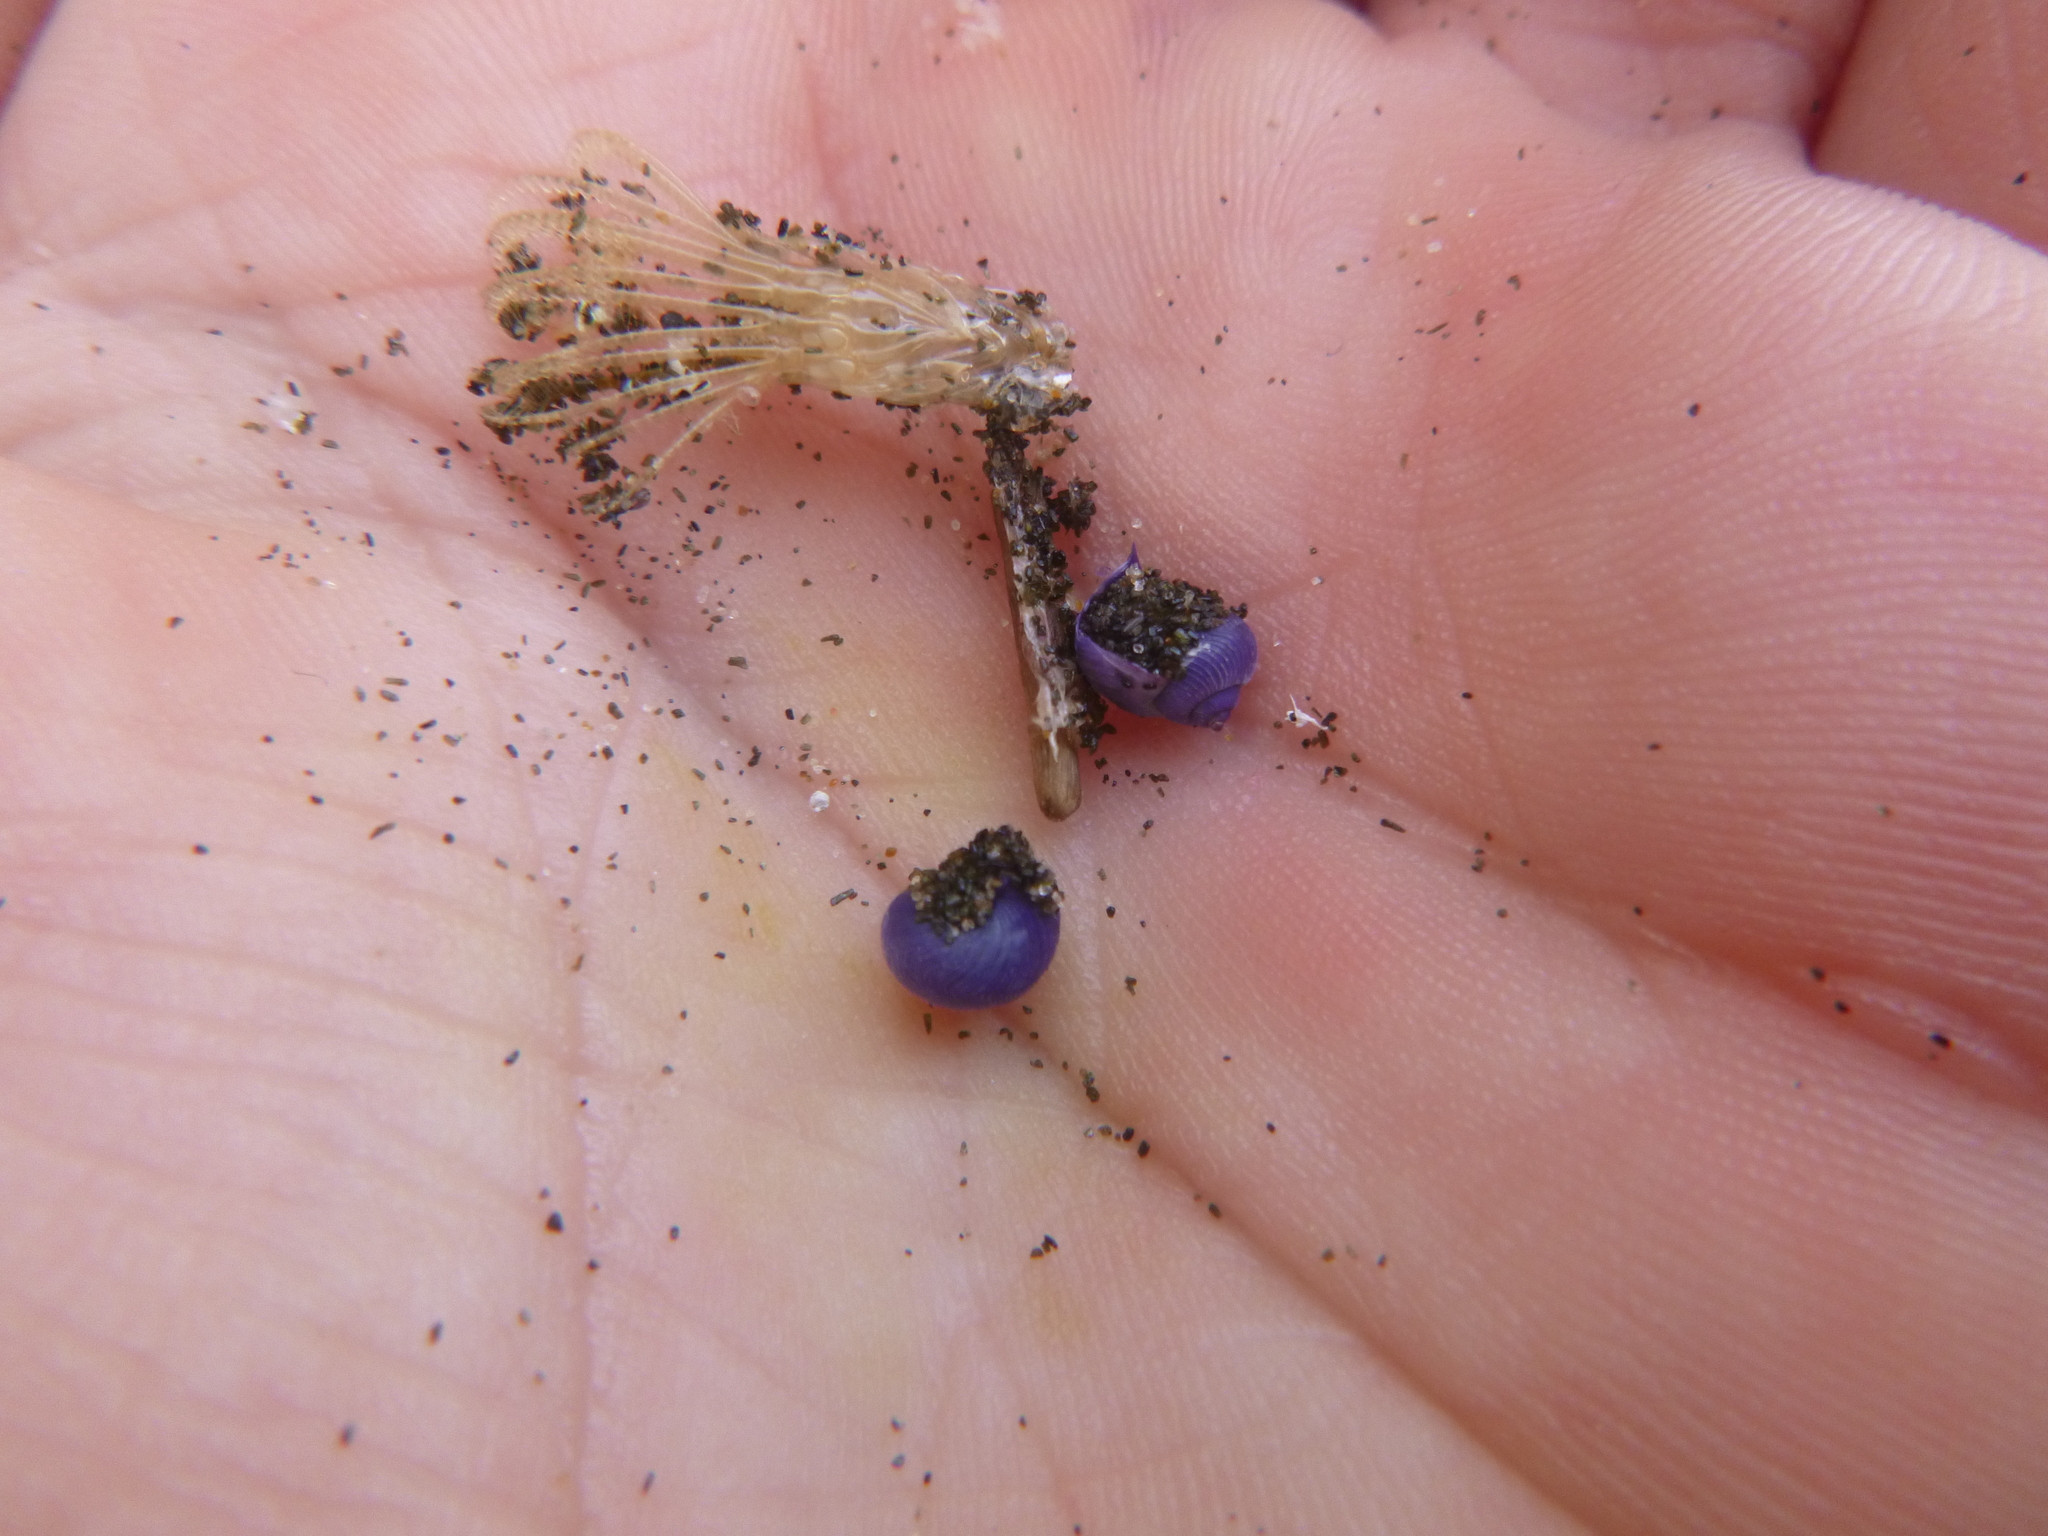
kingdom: Animalia
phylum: Mollusca
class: Gastropoda
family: Epitoniidae
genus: Janthina
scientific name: Janthina exigua
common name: Dwarf janthina
